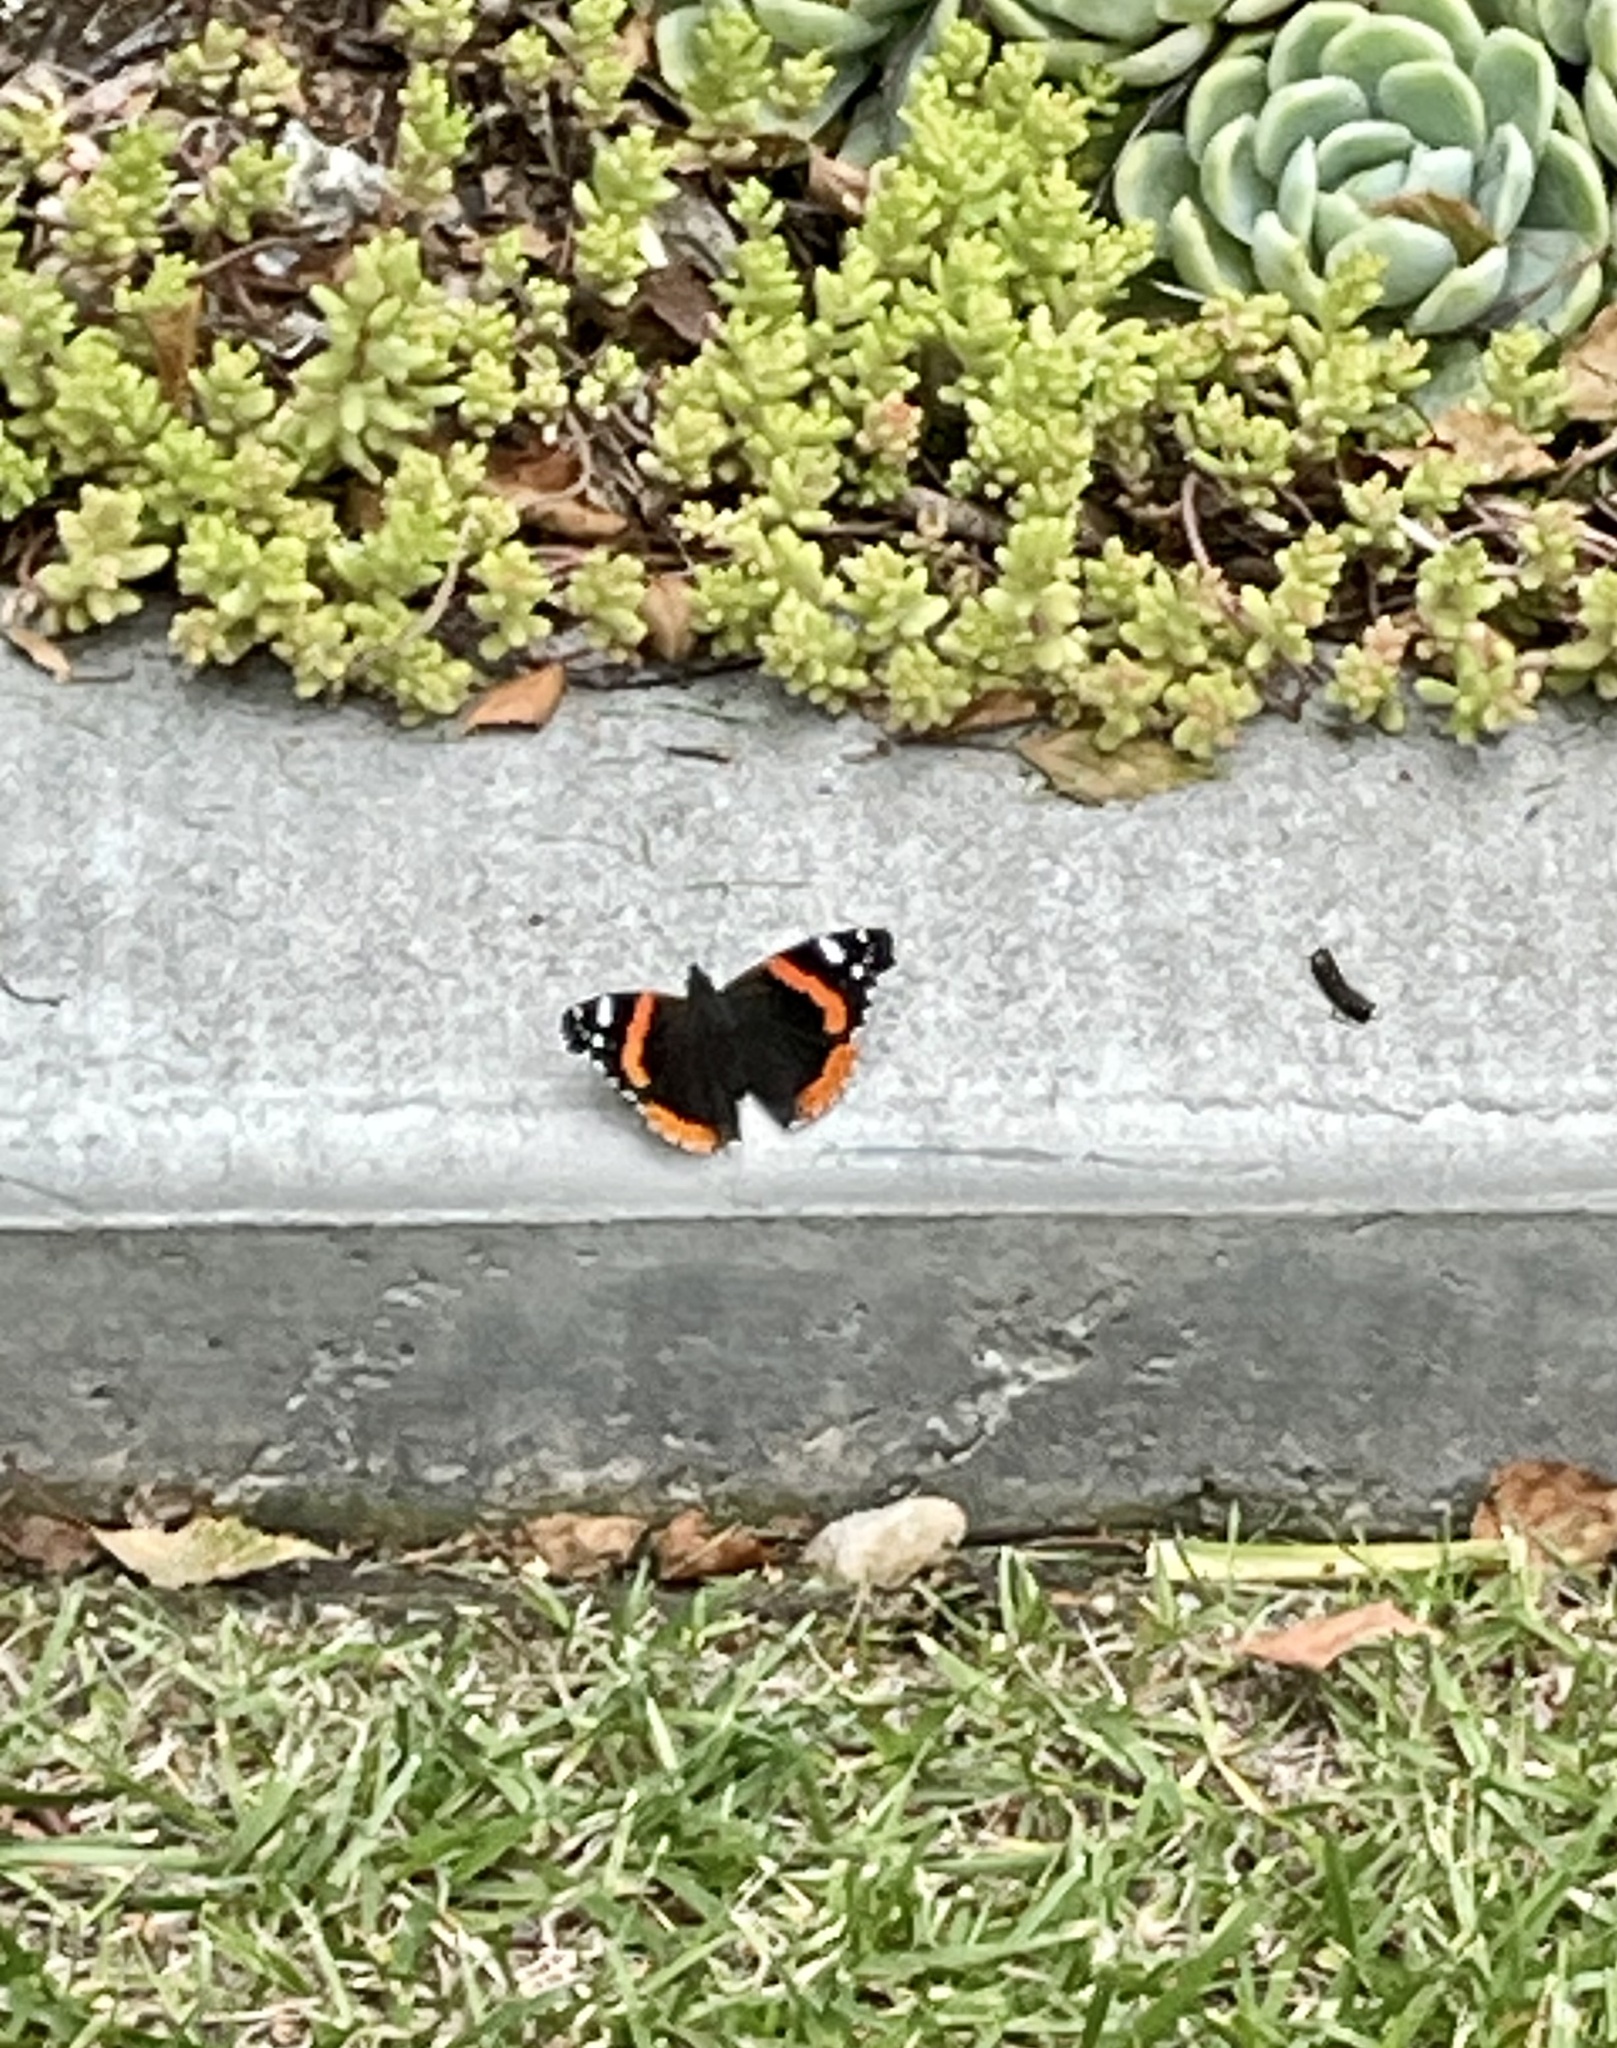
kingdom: Animalia
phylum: Arthropoda
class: Insecta
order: Lepidoptera
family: Nymphalidae
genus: Vanessa
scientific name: Vanessa atalanta
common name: Red admiral
